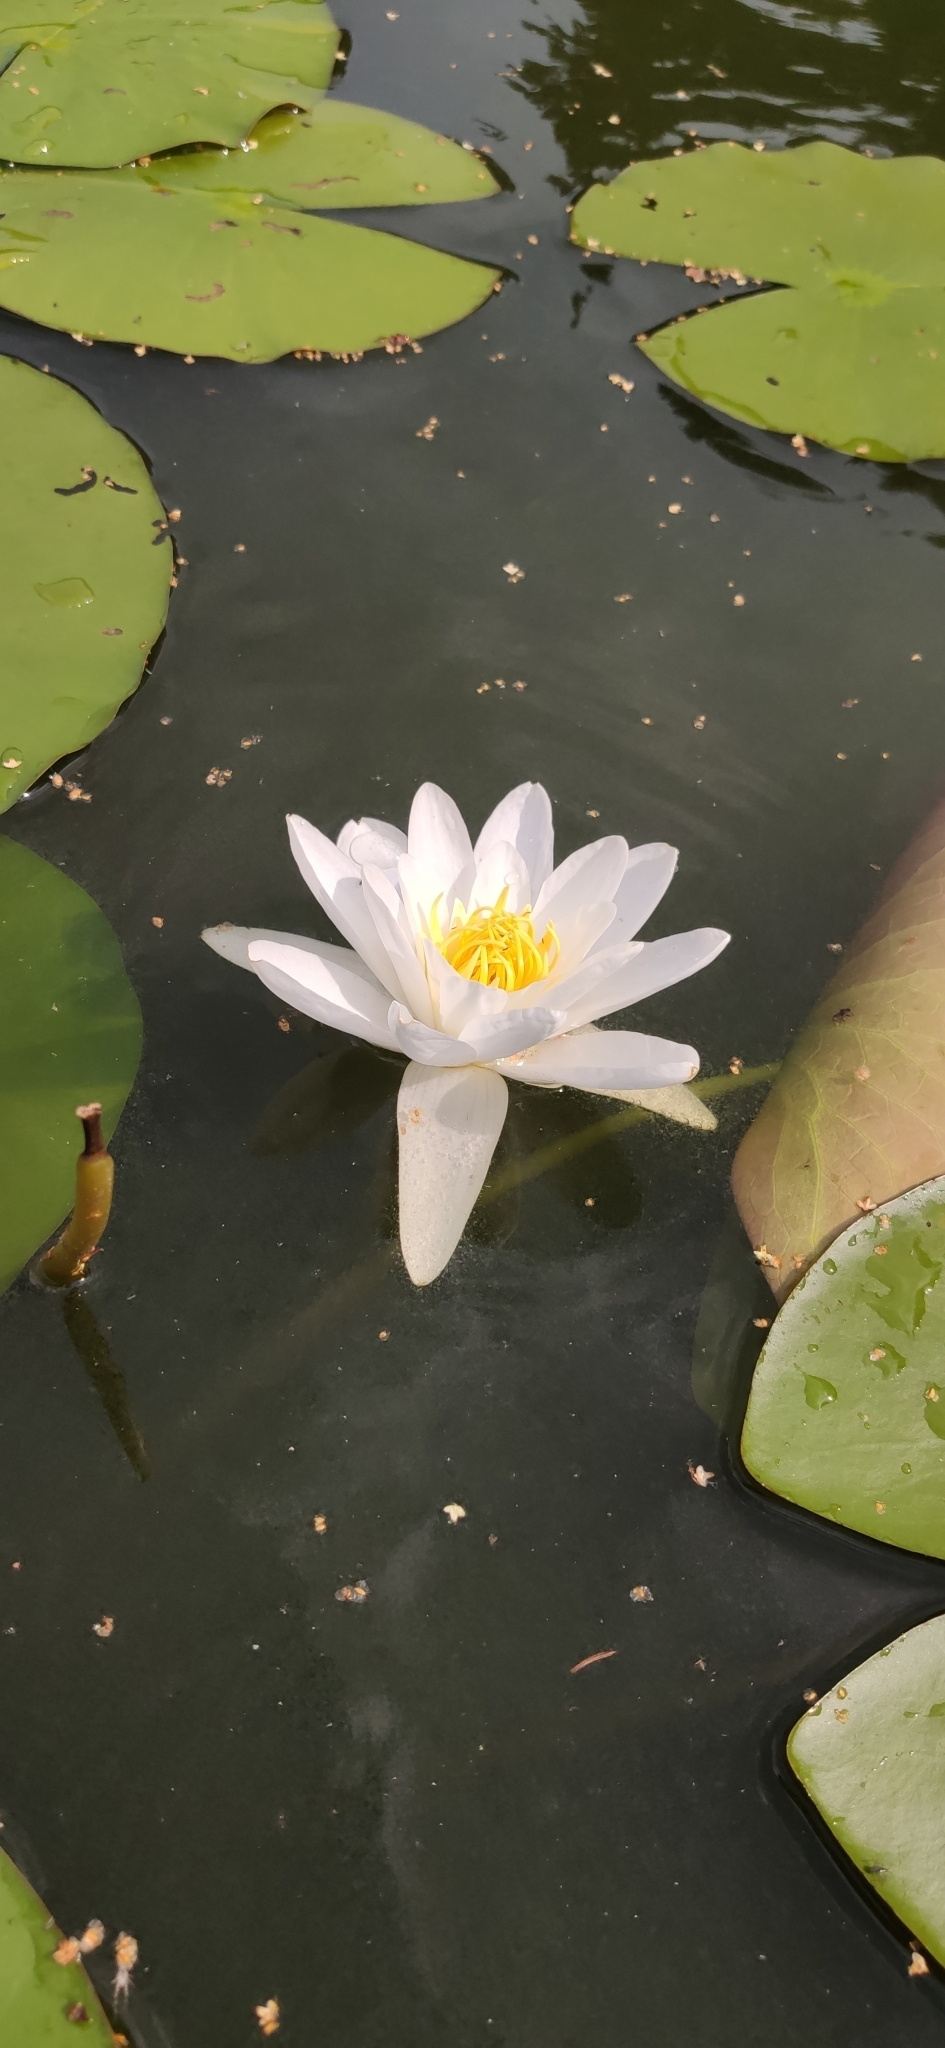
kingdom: Plantae
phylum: Tracheophyta
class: Magnoliopsida
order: Nymphaeales
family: Nymphaeaceae
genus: Nymphaea
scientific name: Nymphaea alba
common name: White water-lily
